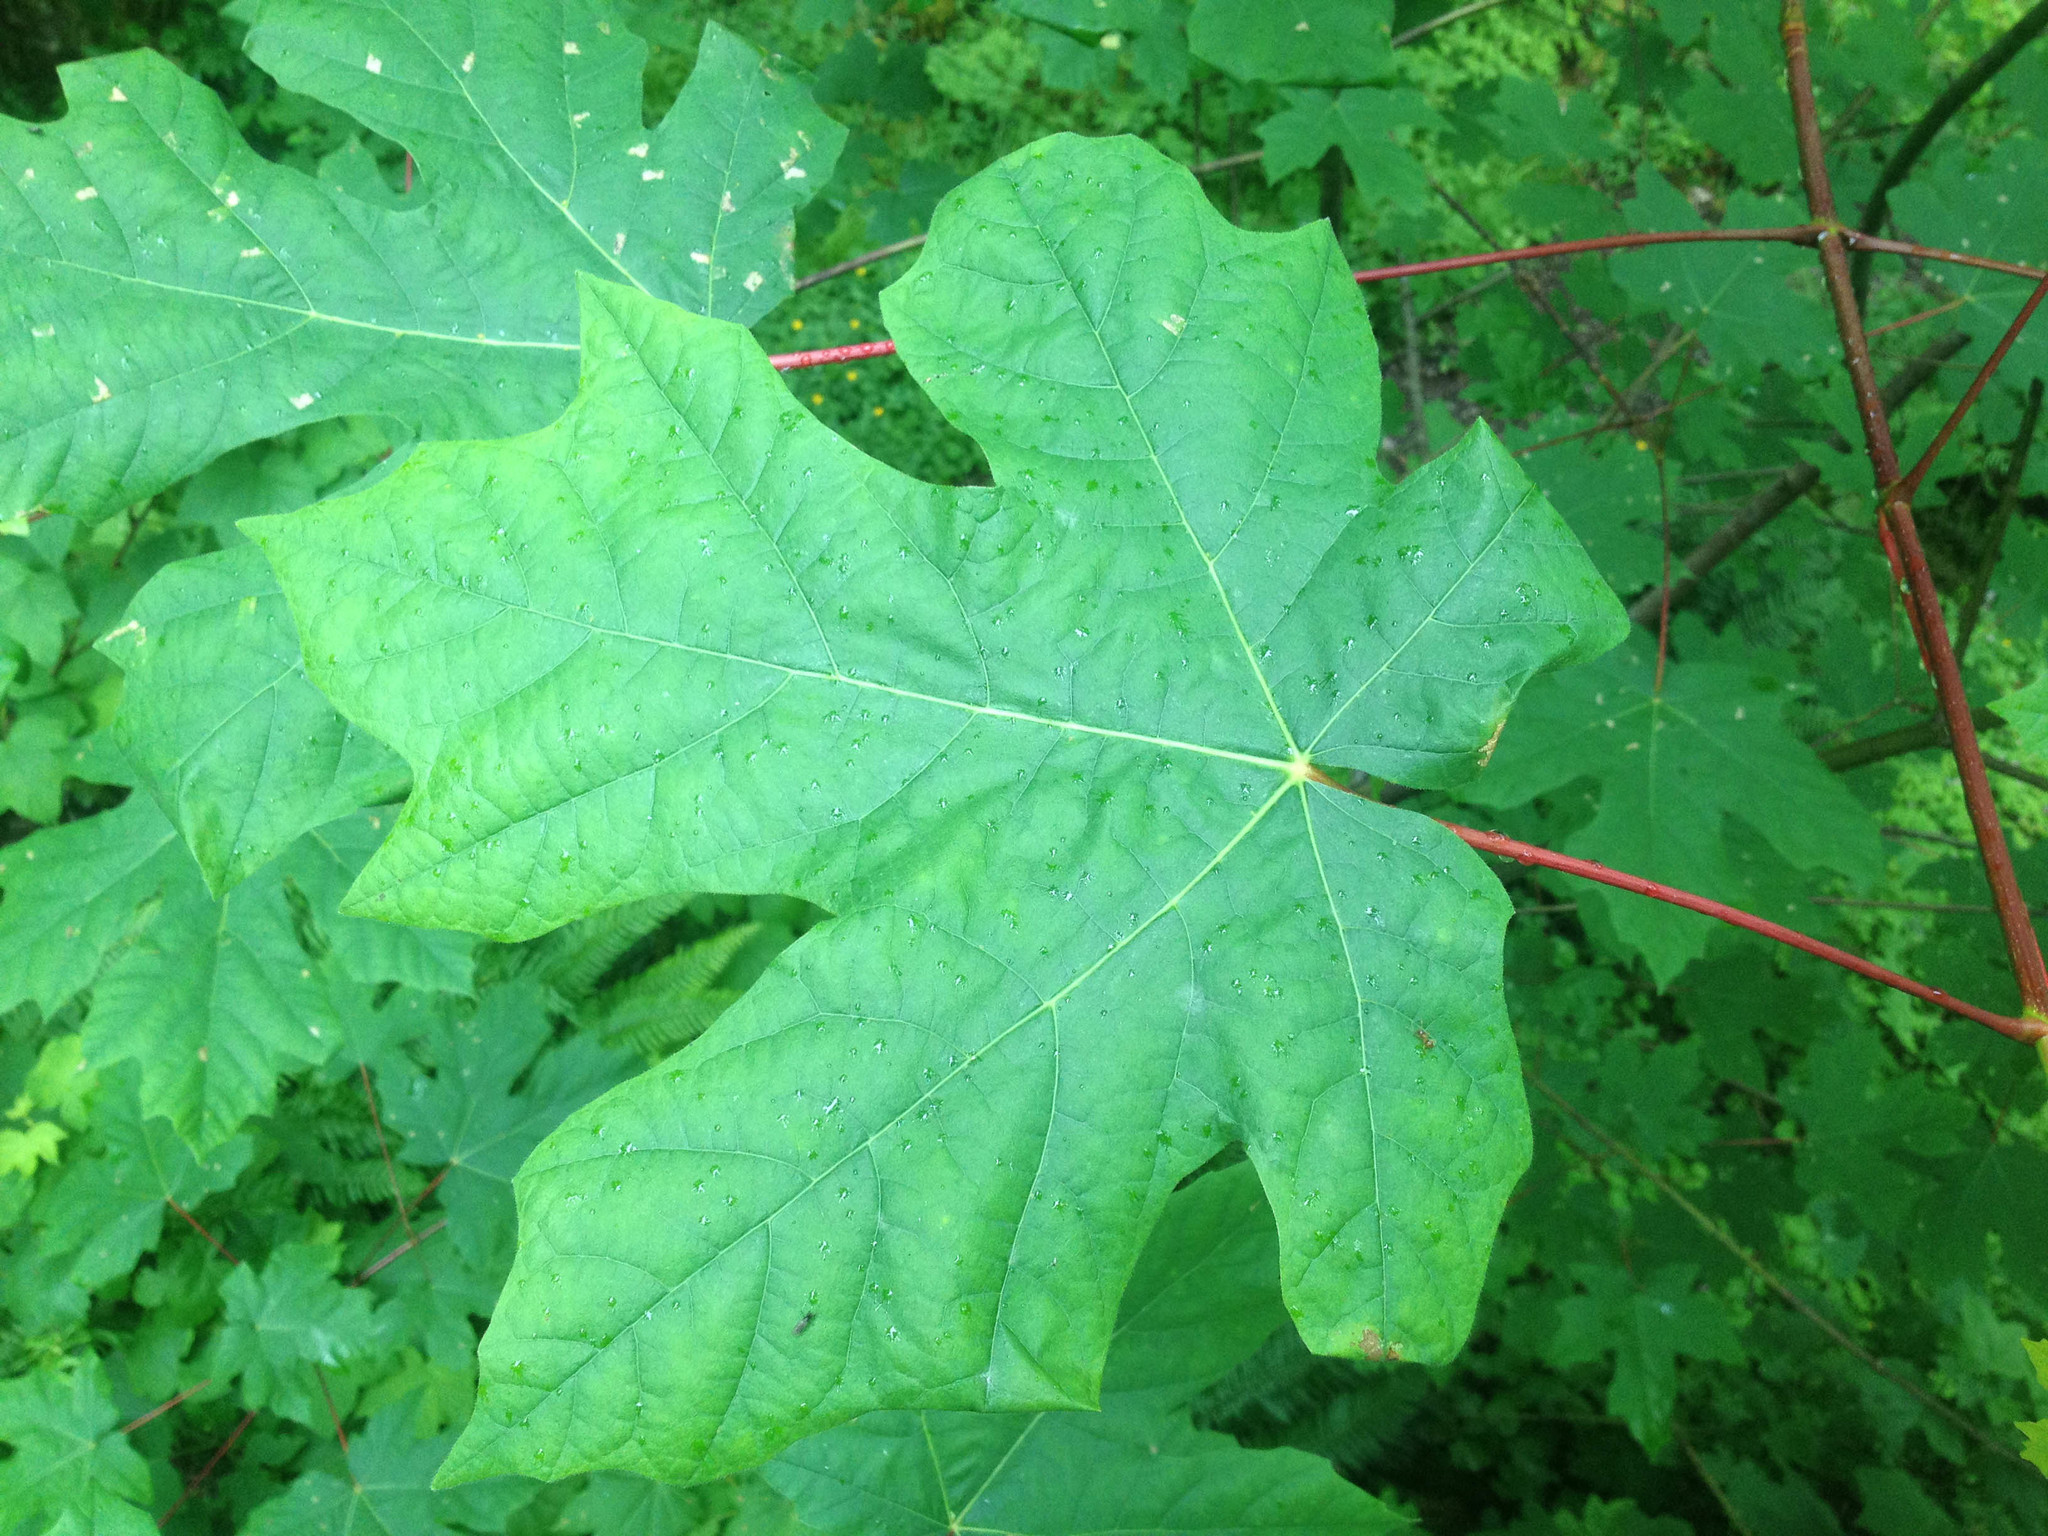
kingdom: Plantae
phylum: Tracheophyta
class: Magnoliopsida
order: Sapindales
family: Sapindaceae
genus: Acer
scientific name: Acer macrophyllum
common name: Oregon maple
